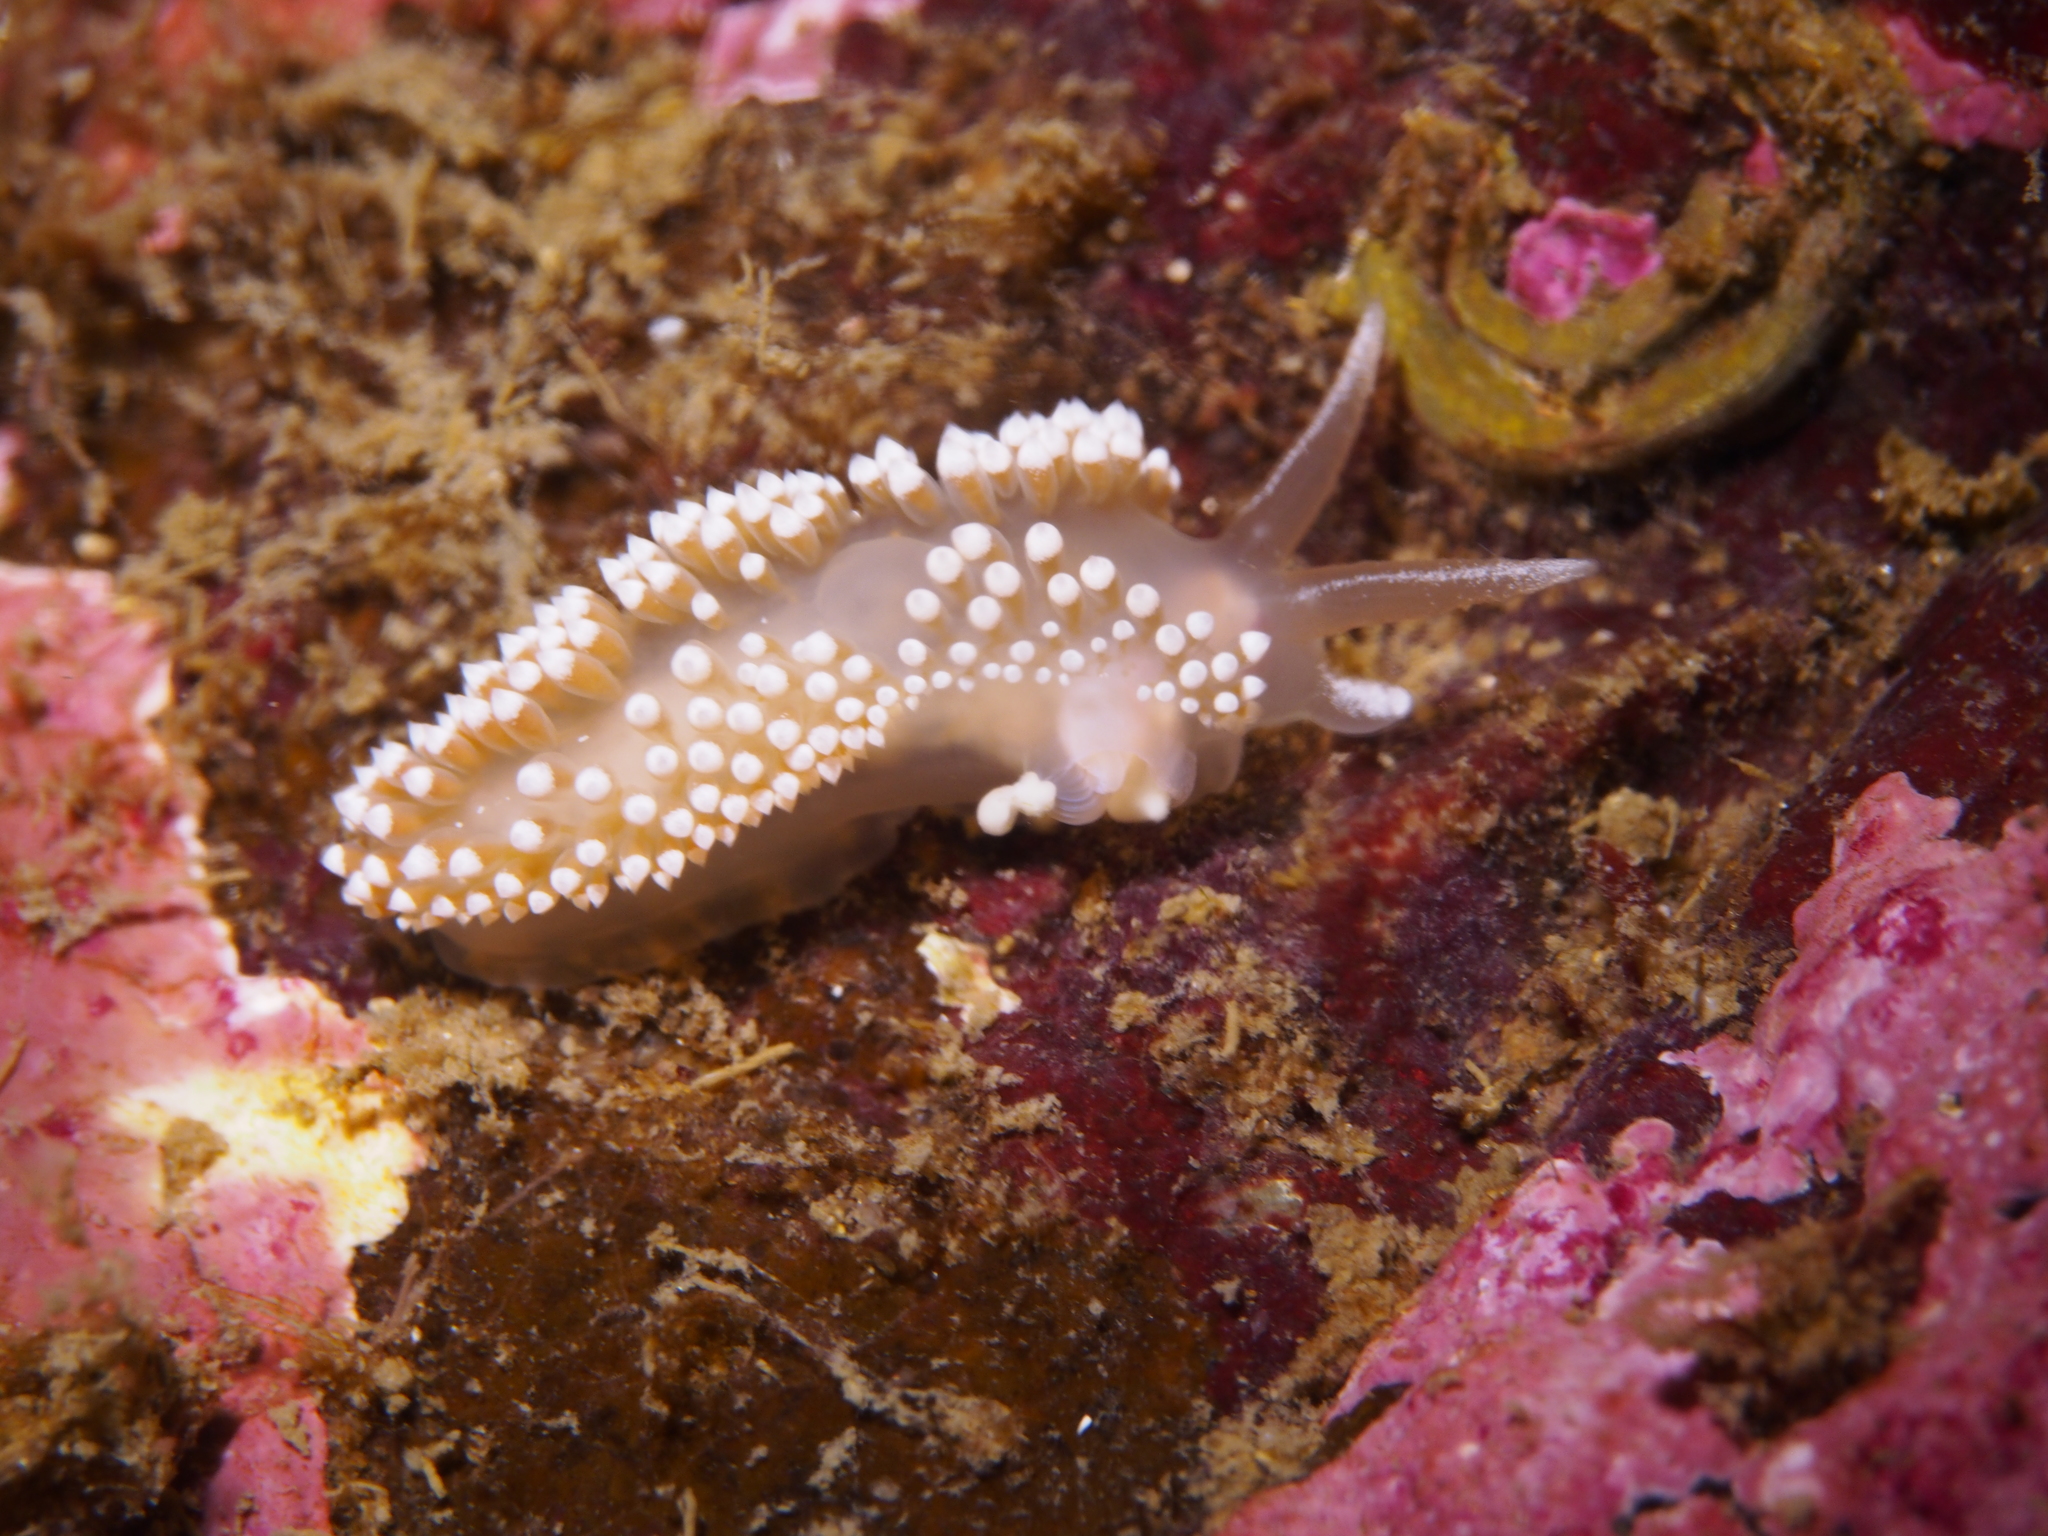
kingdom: Animalia
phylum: Mollusca
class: Gastropoda
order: Nudibranchia
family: Coryphellidae
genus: Coryphella
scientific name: Coryphella verrucosa
